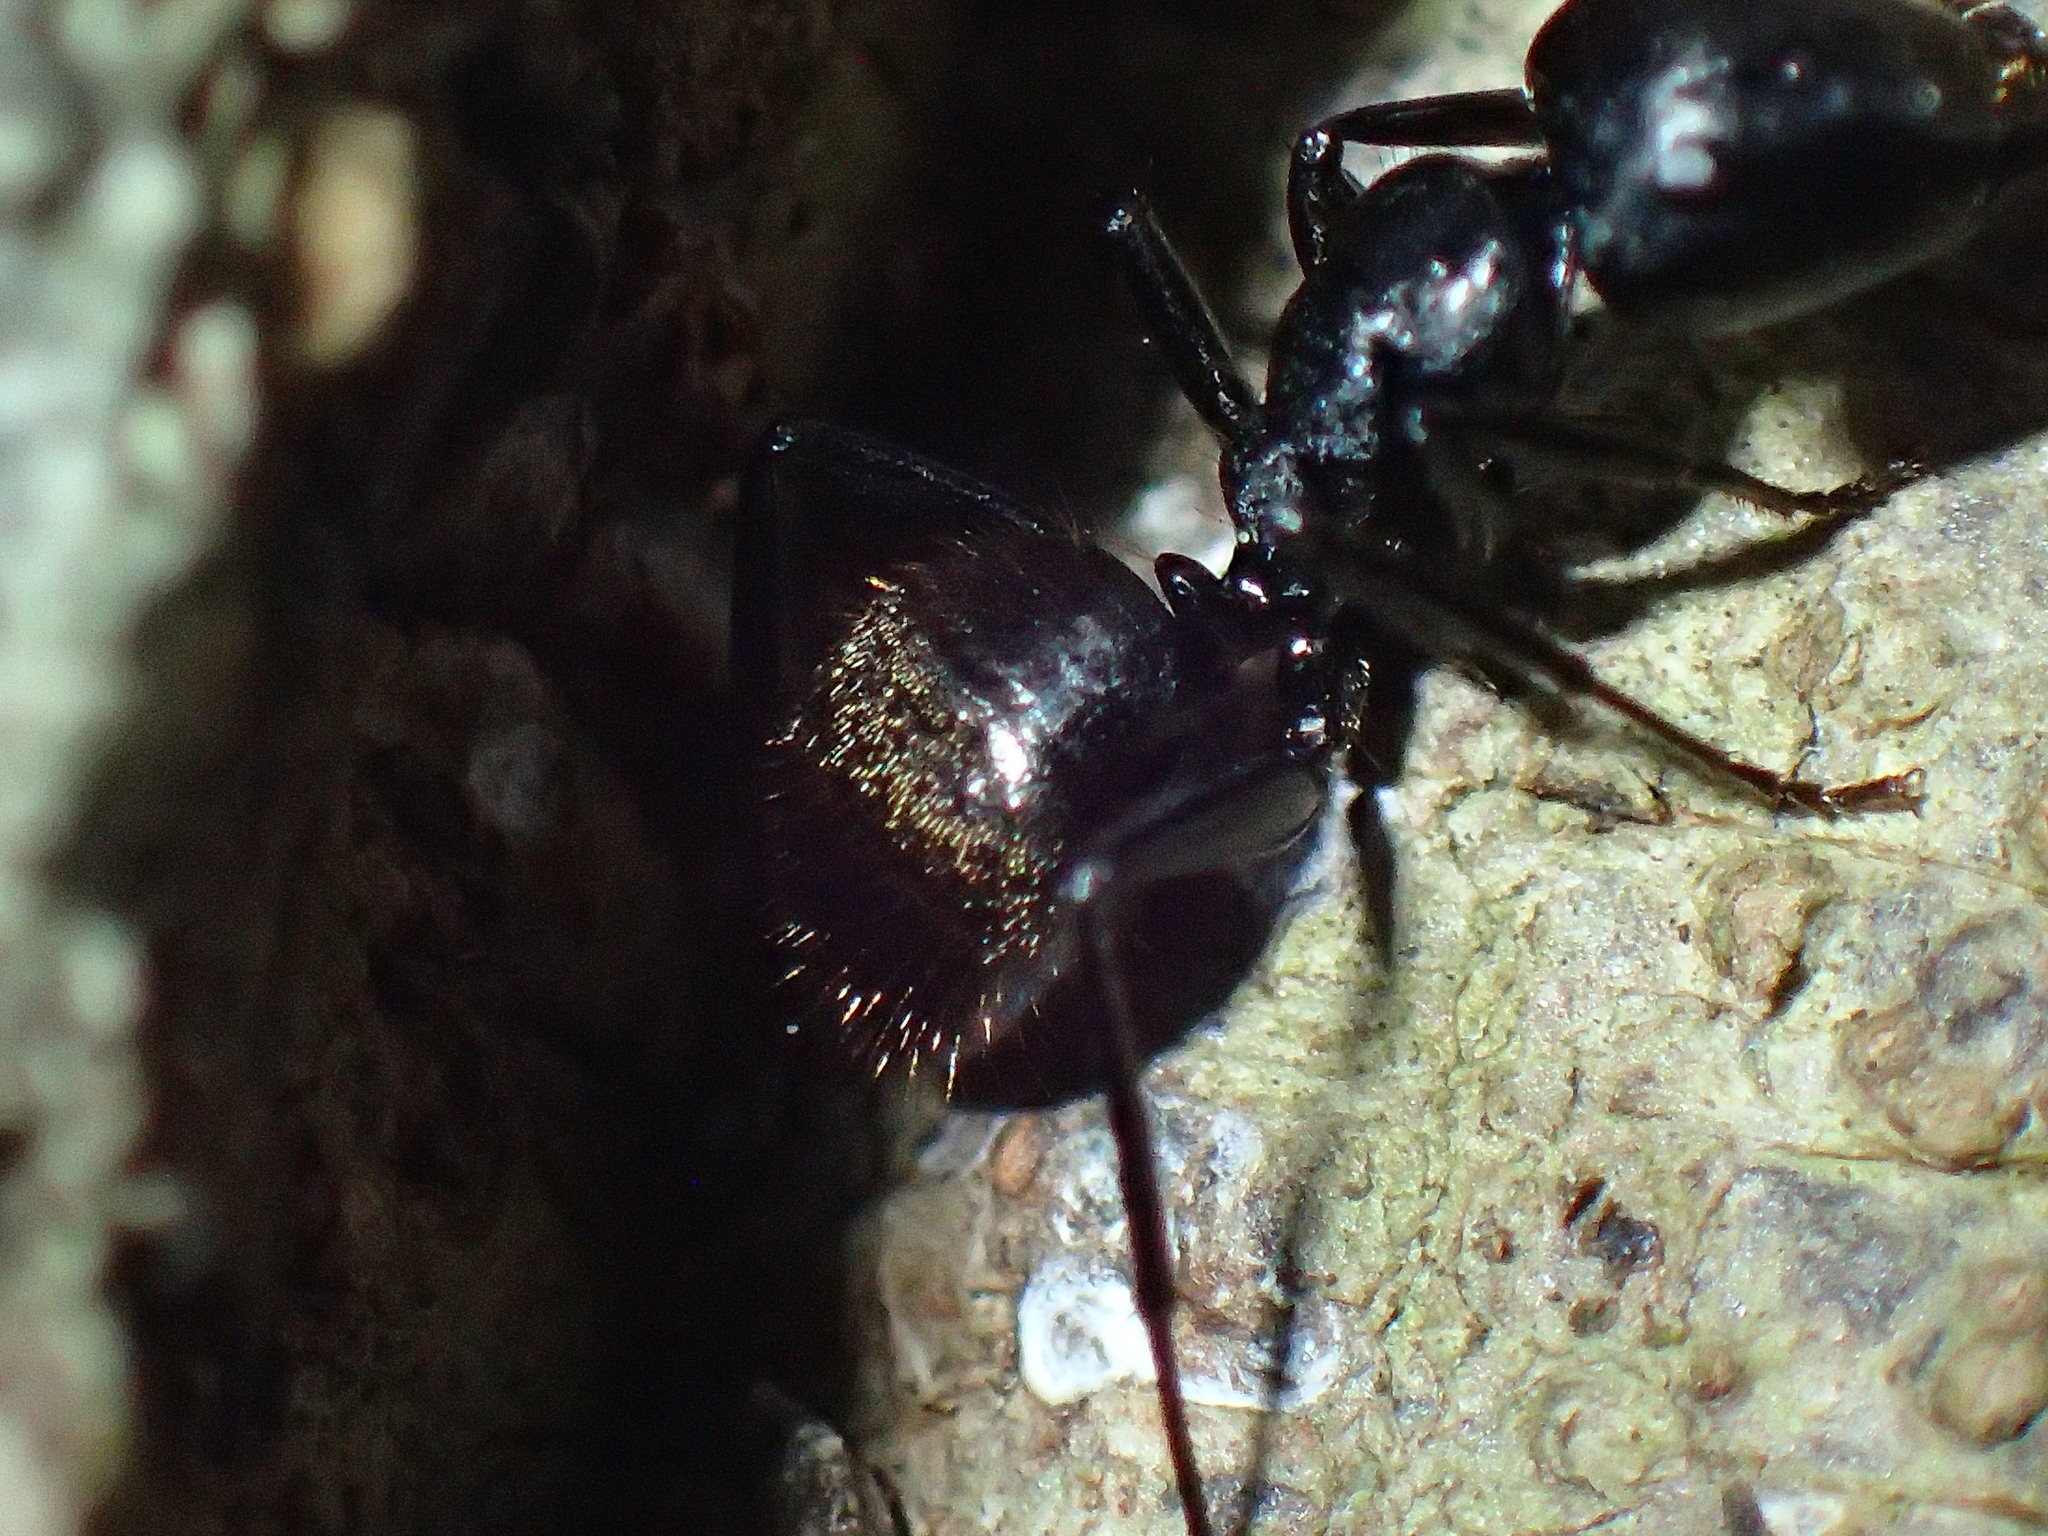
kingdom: Animalia
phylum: Arthropoda
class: Insecta
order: Hymenoptera
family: Formicidae
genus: Camponotus
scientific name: Camponotus arminius
